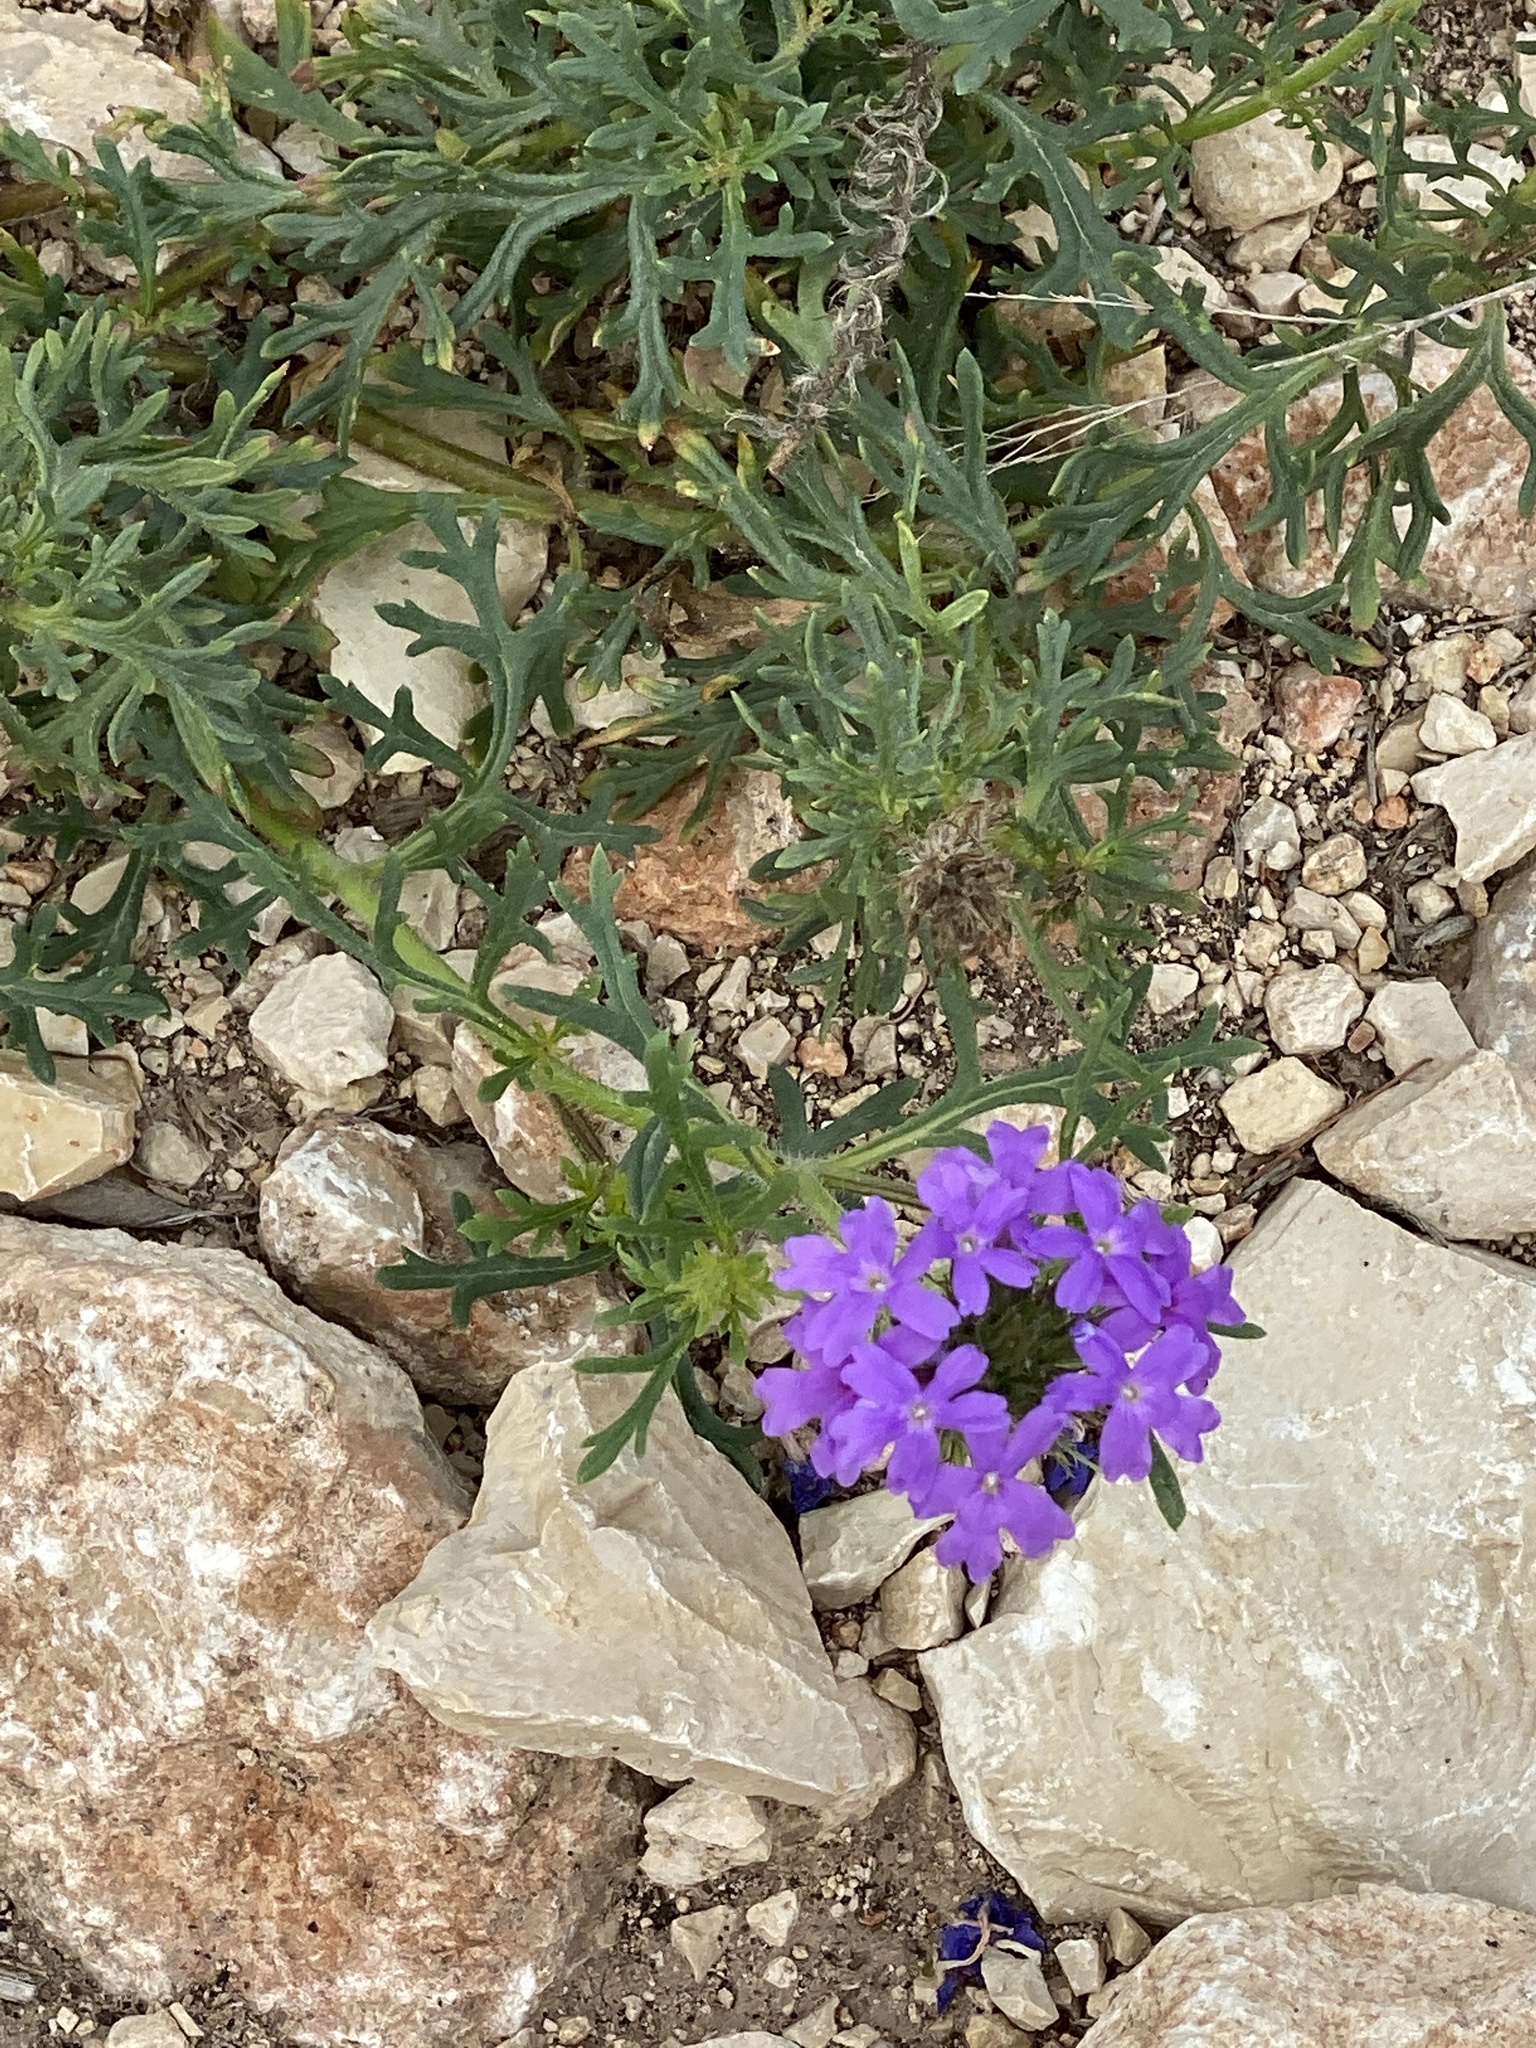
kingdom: Plantae
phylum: Tracheophyta
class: Magnoliopsida
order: Lamiales
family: Verbenaceae
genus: Verbena
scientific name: Verbena bipinnatifida
